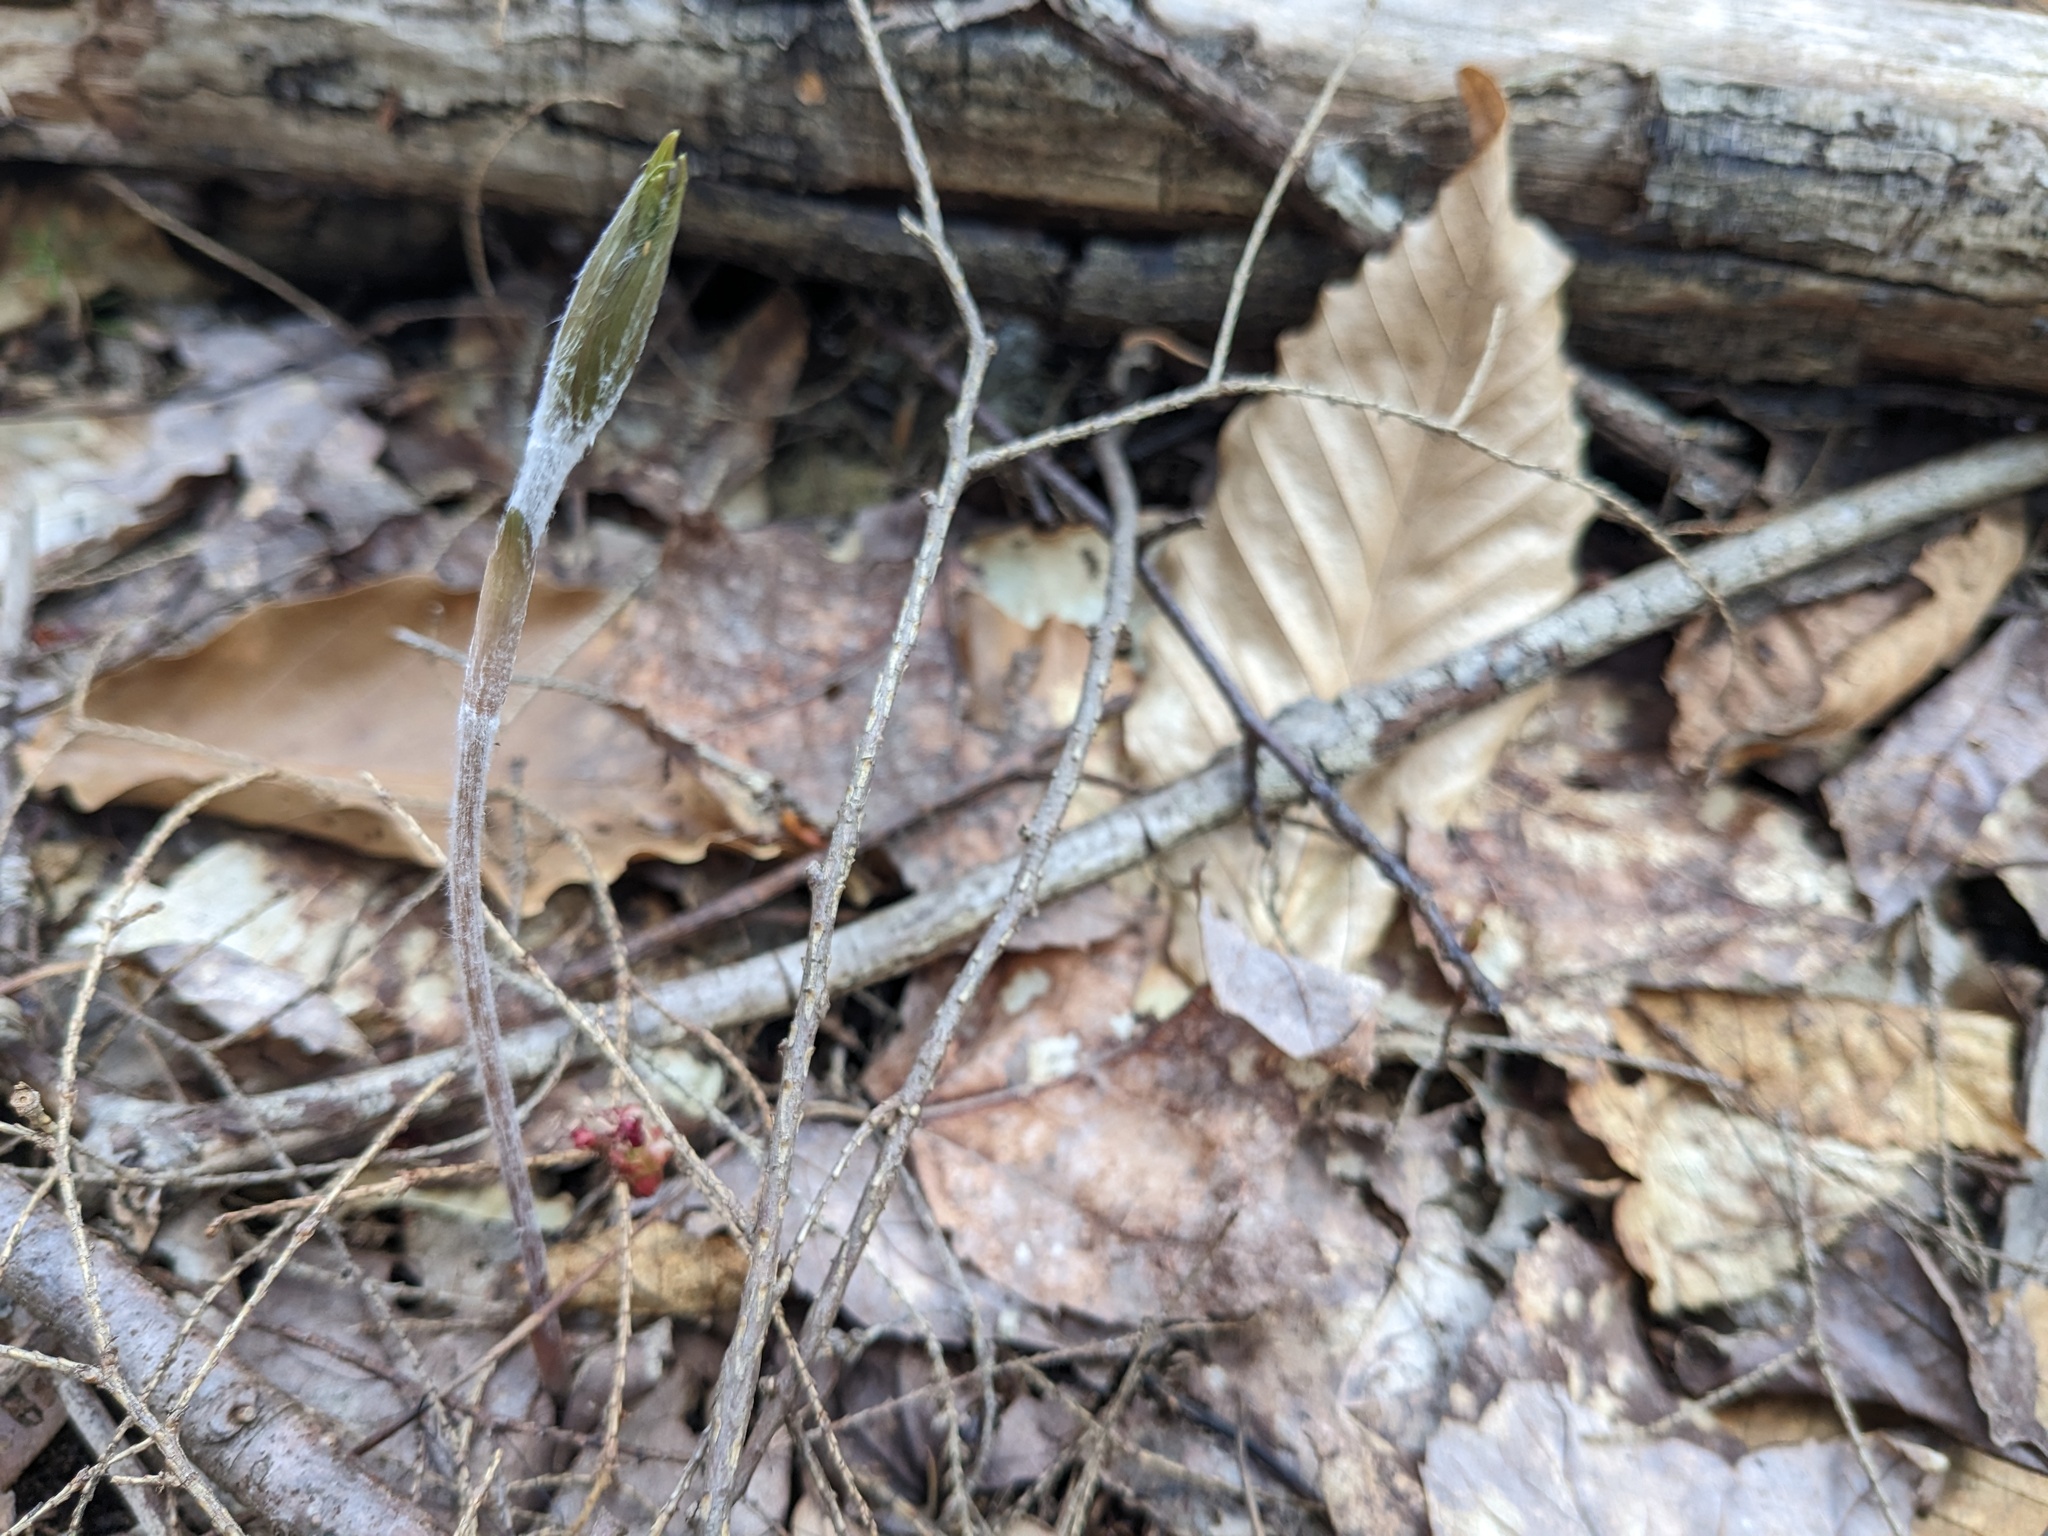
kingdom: Plantae
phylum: Tracheophyta
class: Liliopsida
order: Liliales
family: Liliaceae
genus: Medeola
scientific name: Medeola virginiana
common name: Indian cucumber-root
